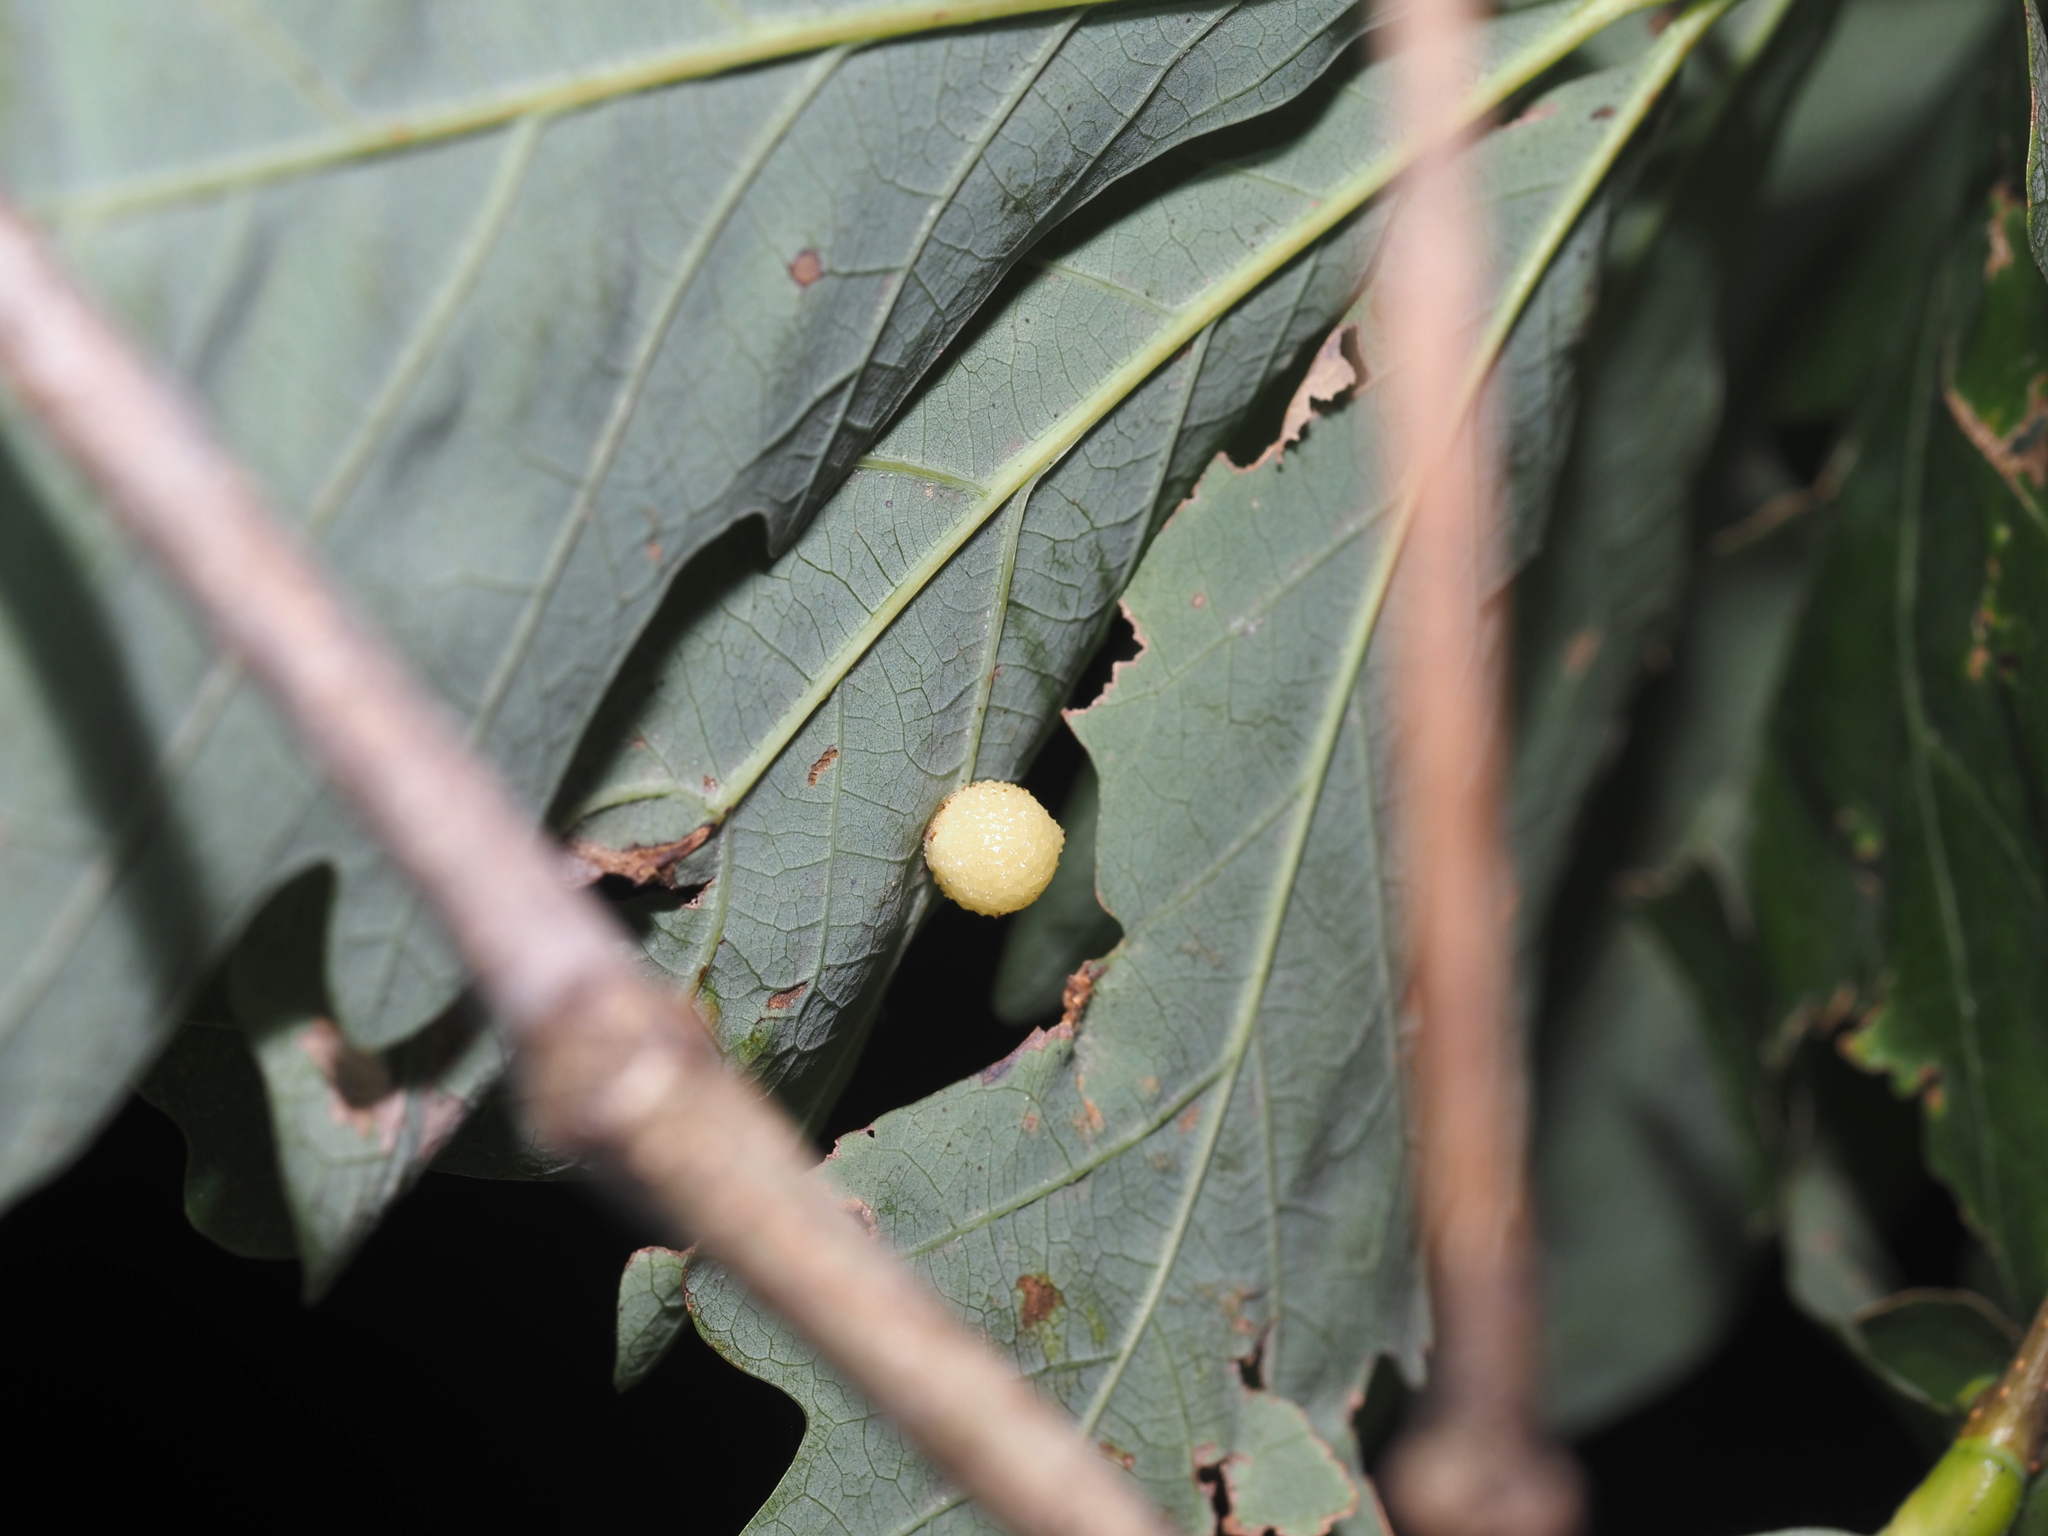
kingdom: Animalia
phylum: Arthropoda
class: Insecta
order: Hymenoptera
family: Cynipidae
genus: Acraspis
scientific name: Acraspis
